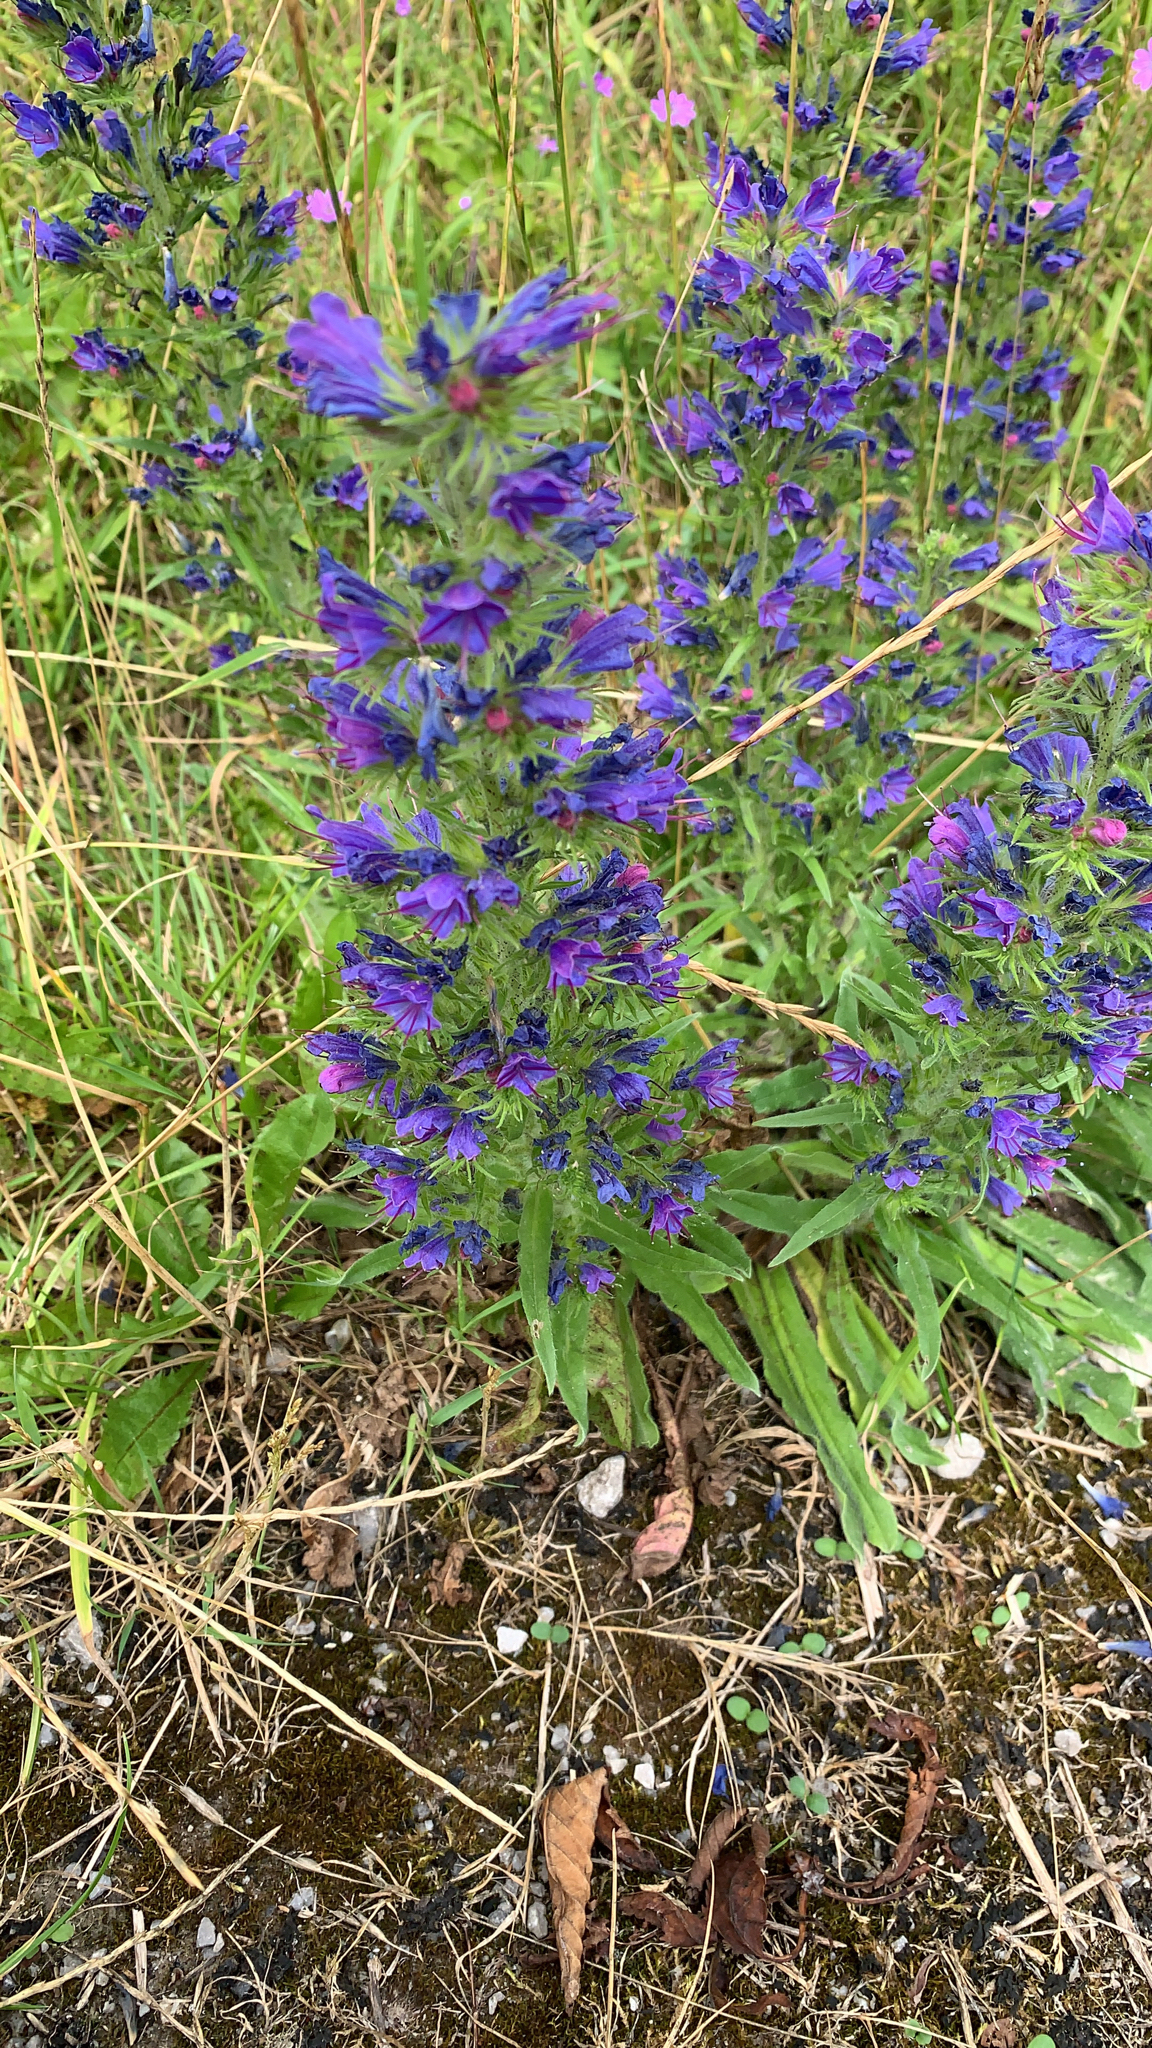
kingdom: Plantae
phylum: Tracheophyta
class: Magnoliopsida
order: Boraginales
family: Boraginaceae
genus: Echium
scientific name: Echium vulgare
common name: Common viper's bugloss
